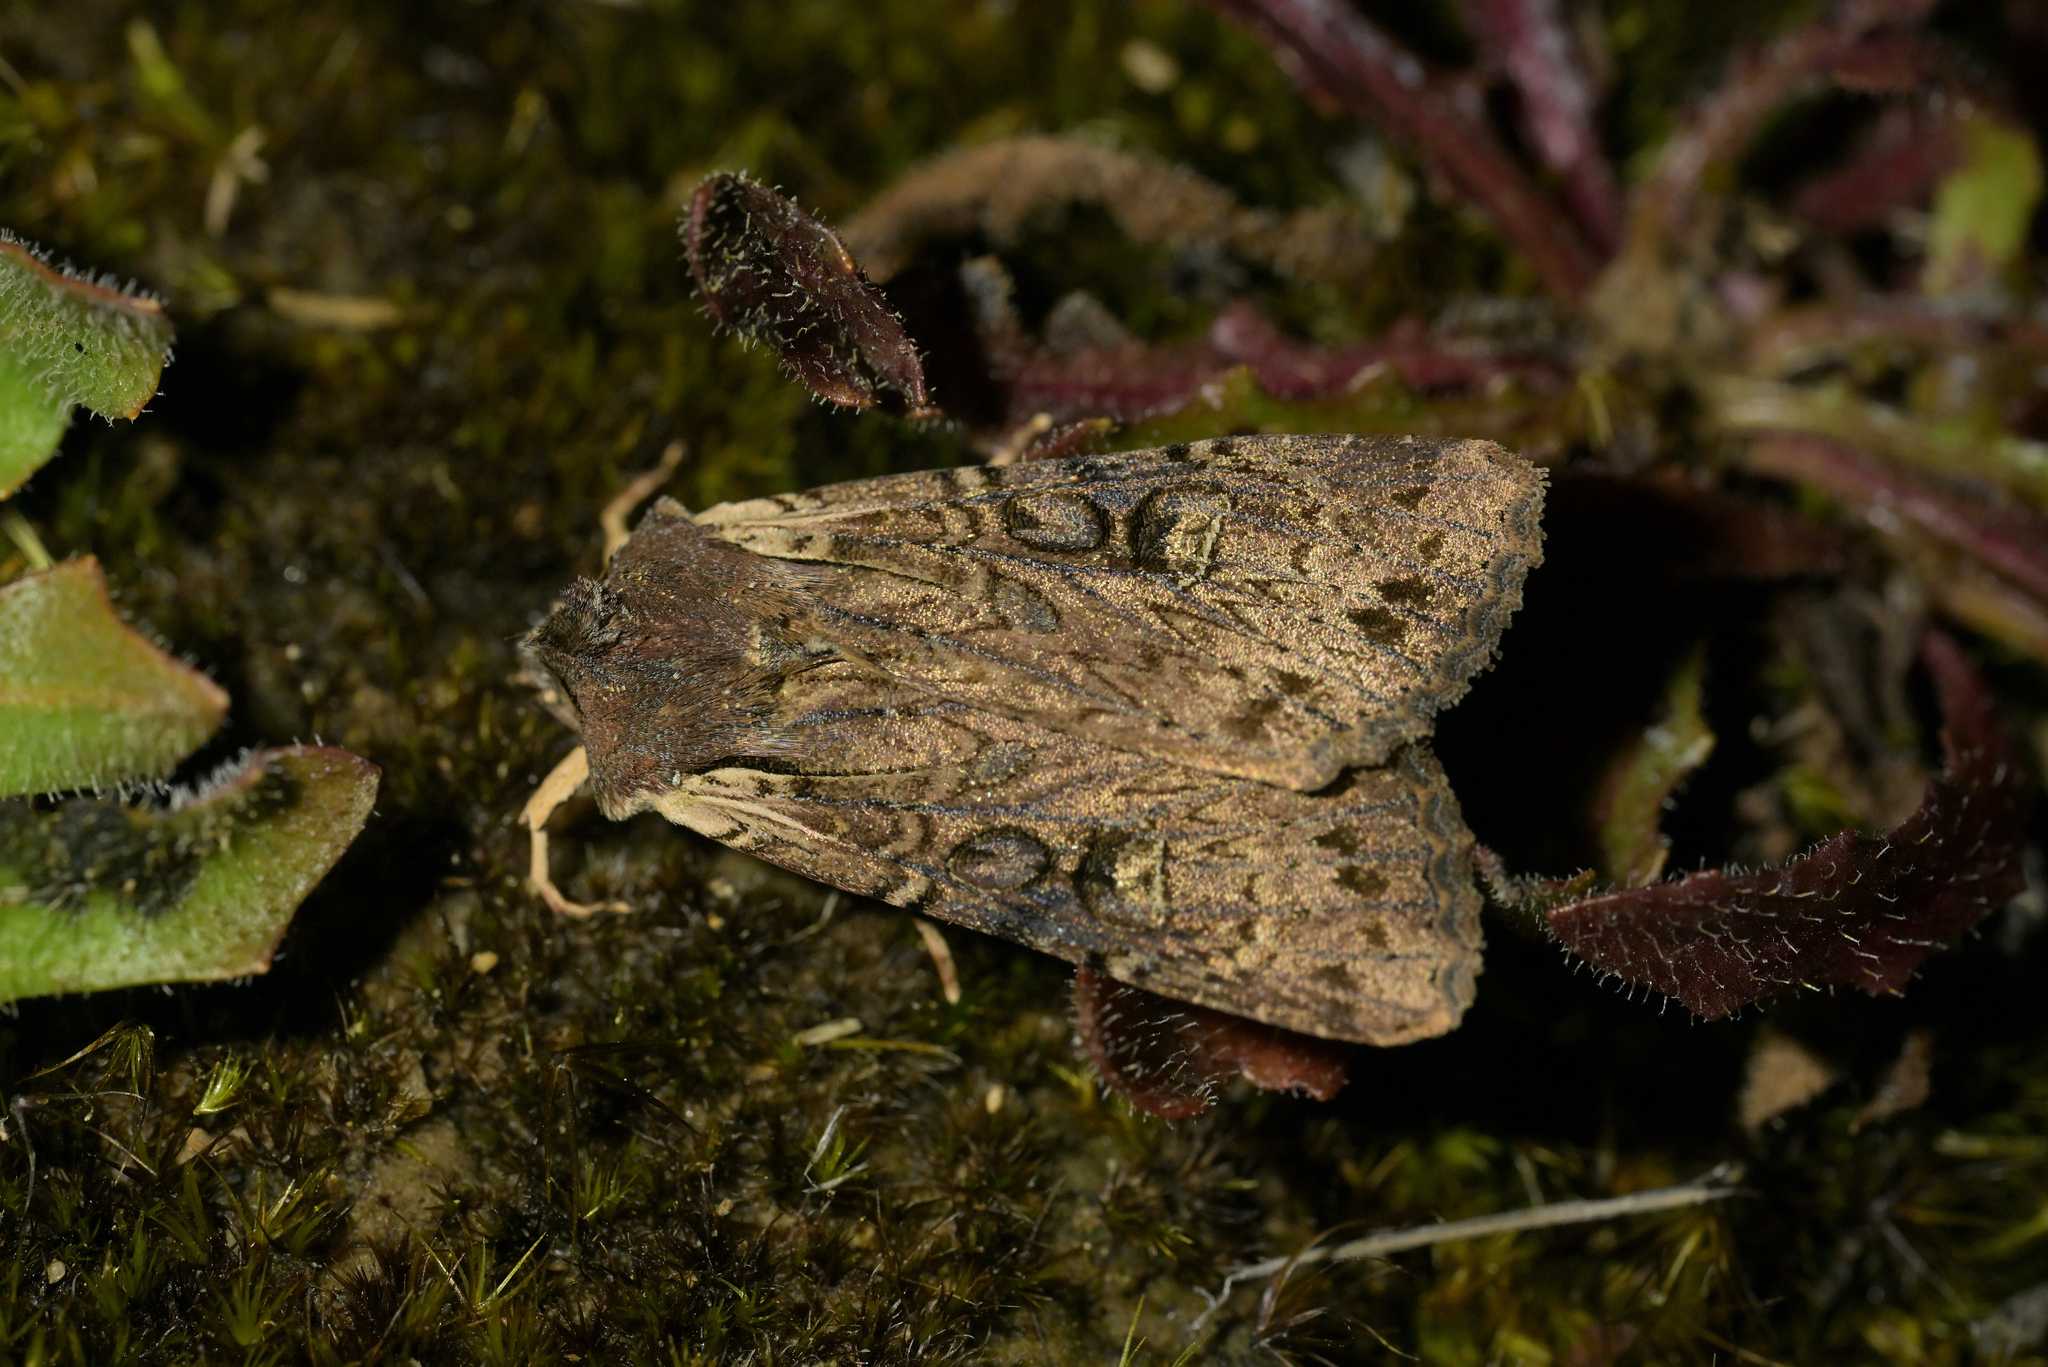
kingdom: Animalia
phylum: Arthropoda
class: Insecta
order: Lepidoptera
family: Noctuidae
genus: Ichneutica
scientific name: Ichneutica omoplaca
